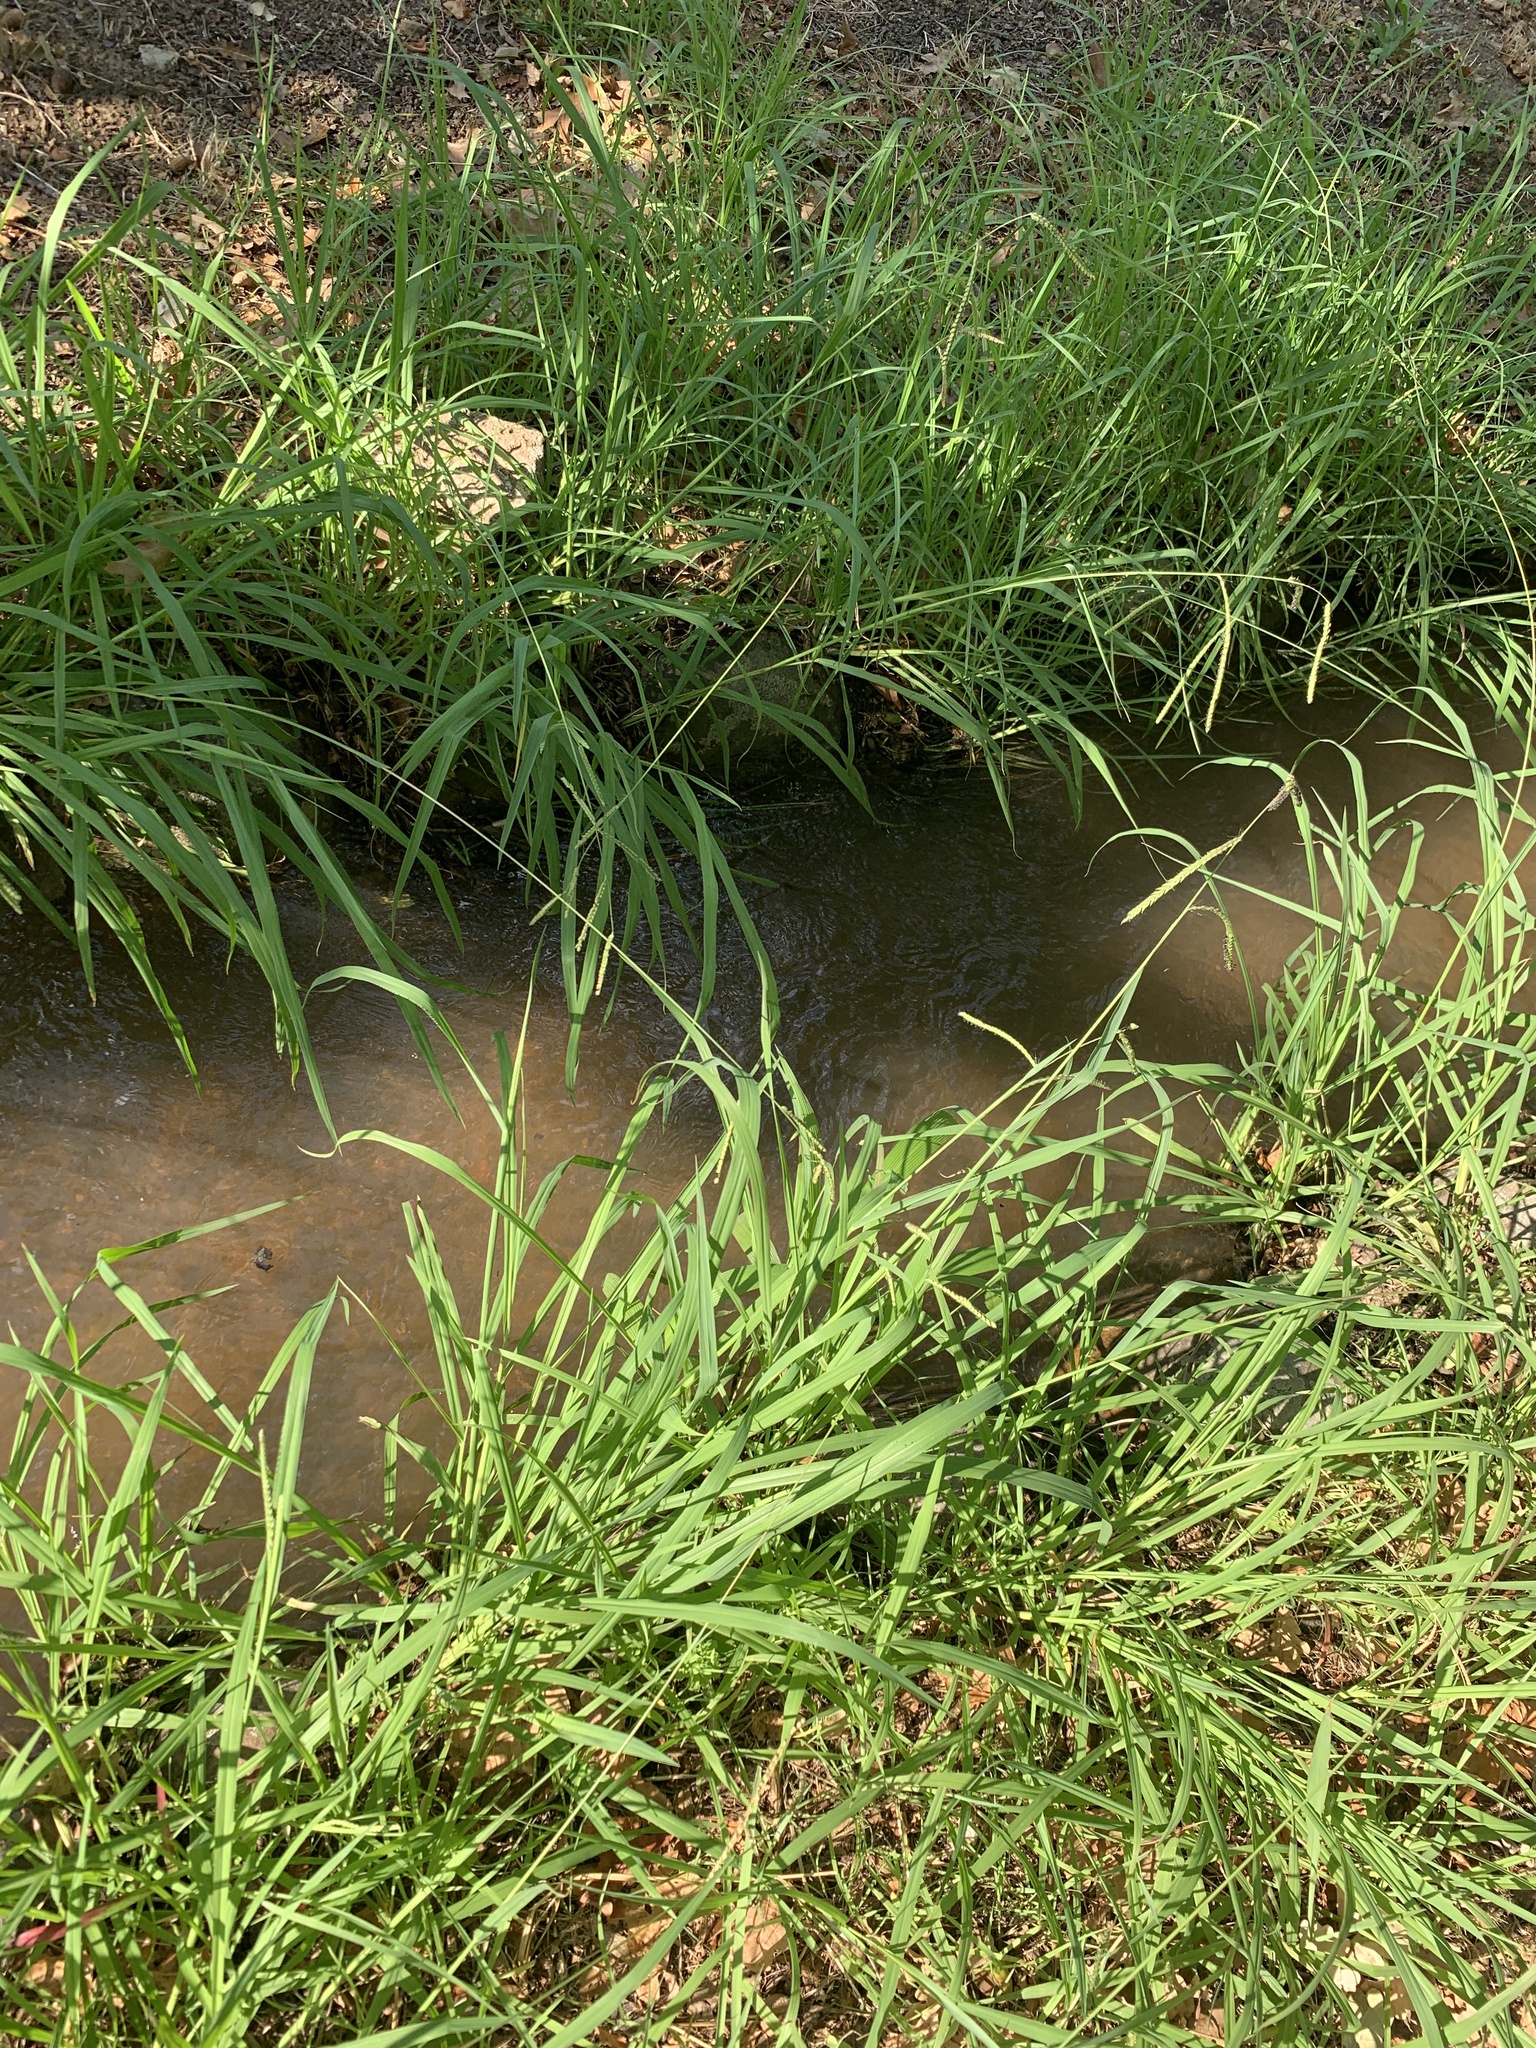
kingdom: Plantae
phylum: Tracheophyta
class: Liliopsida
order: Poales
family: Poaceae
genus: Paspalum
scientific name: Paspalum dilatatum
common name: Dallisgrass
